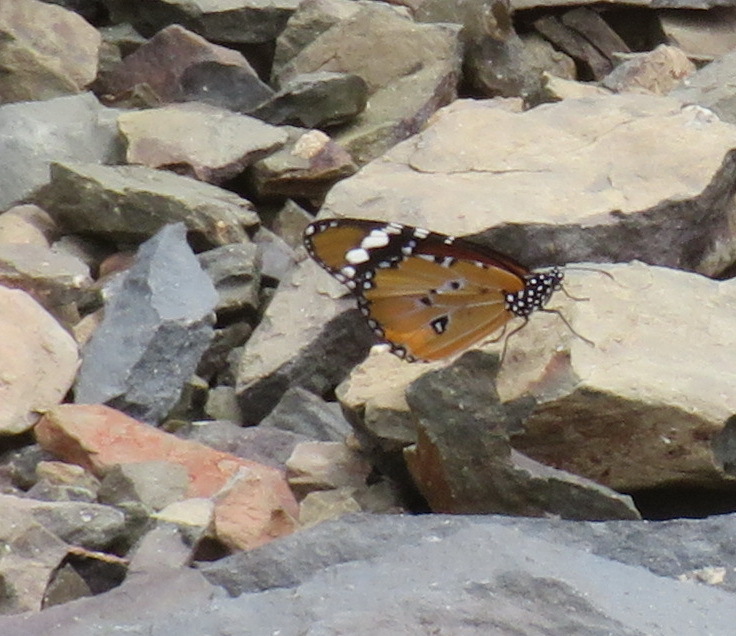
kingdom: Animalia
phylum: Arthropoda
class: Insecta
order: Lepidoptera
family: Nymphalidae
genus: Danaus
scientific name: Danaus chrysippus
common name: Plain tiger
